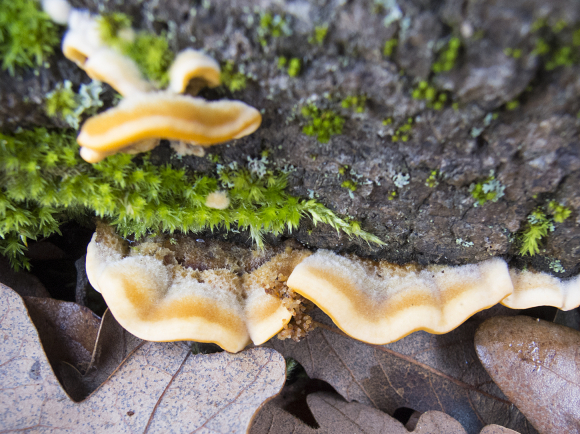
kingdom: Fungi
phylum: Basidiomycota
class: Agaricomycetes
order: Russulales
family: Stereaceae
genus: Stereum
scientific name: Stereum hirsutum
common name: Hairy curtain crust
